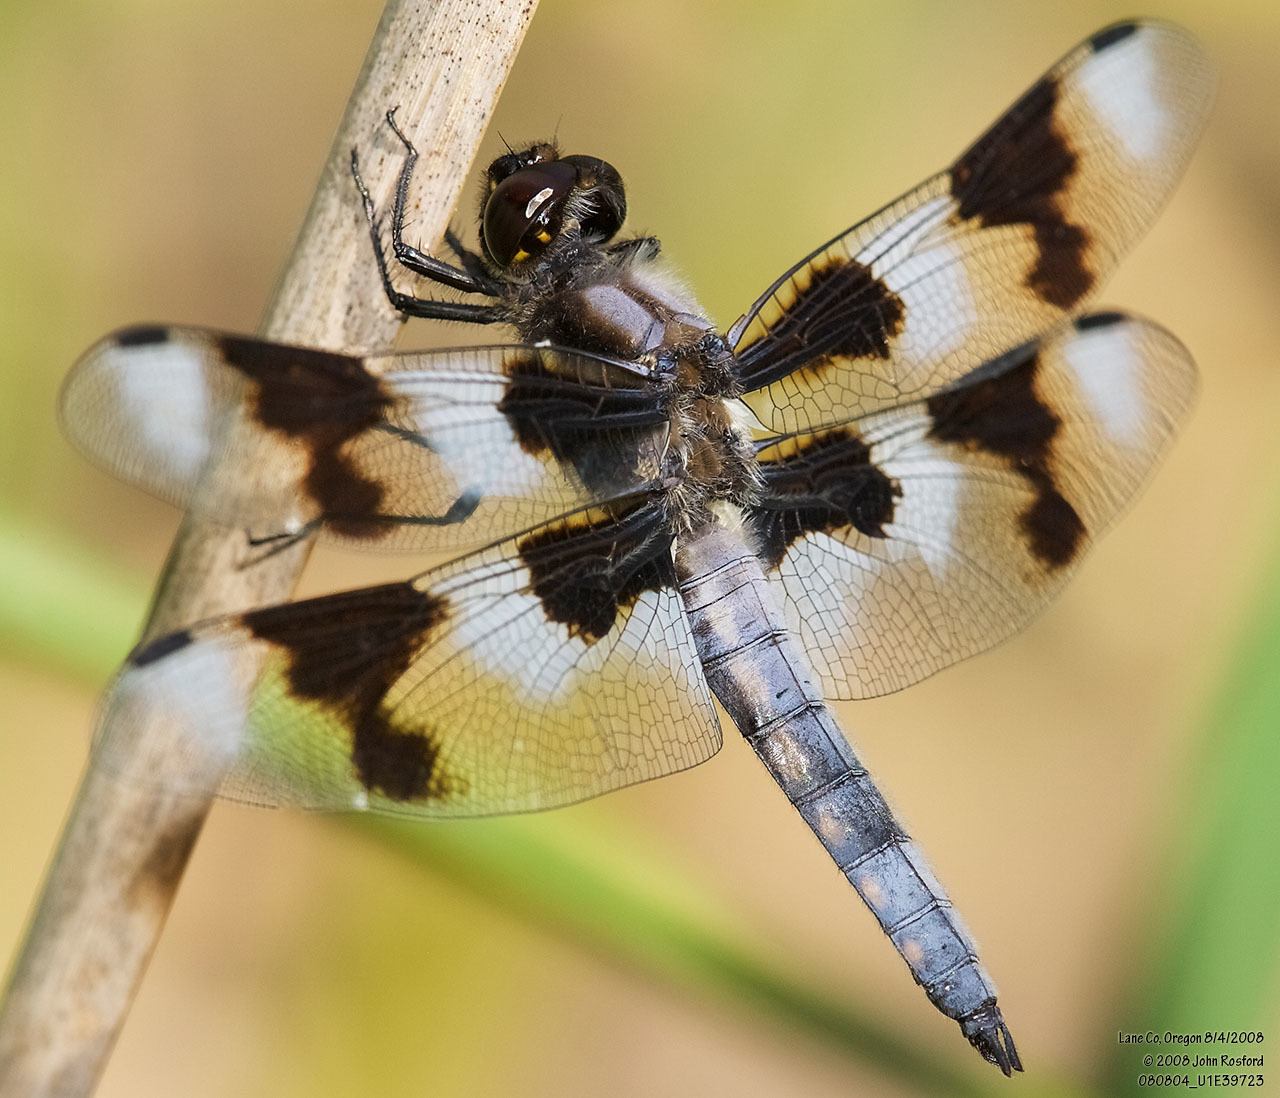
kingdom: Animalia
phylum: Arthropoda
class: Insecta
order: Odonata
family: Libellulidae
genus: Libellula
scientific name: Libellula forensis
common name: Eight-spotted skimmer
